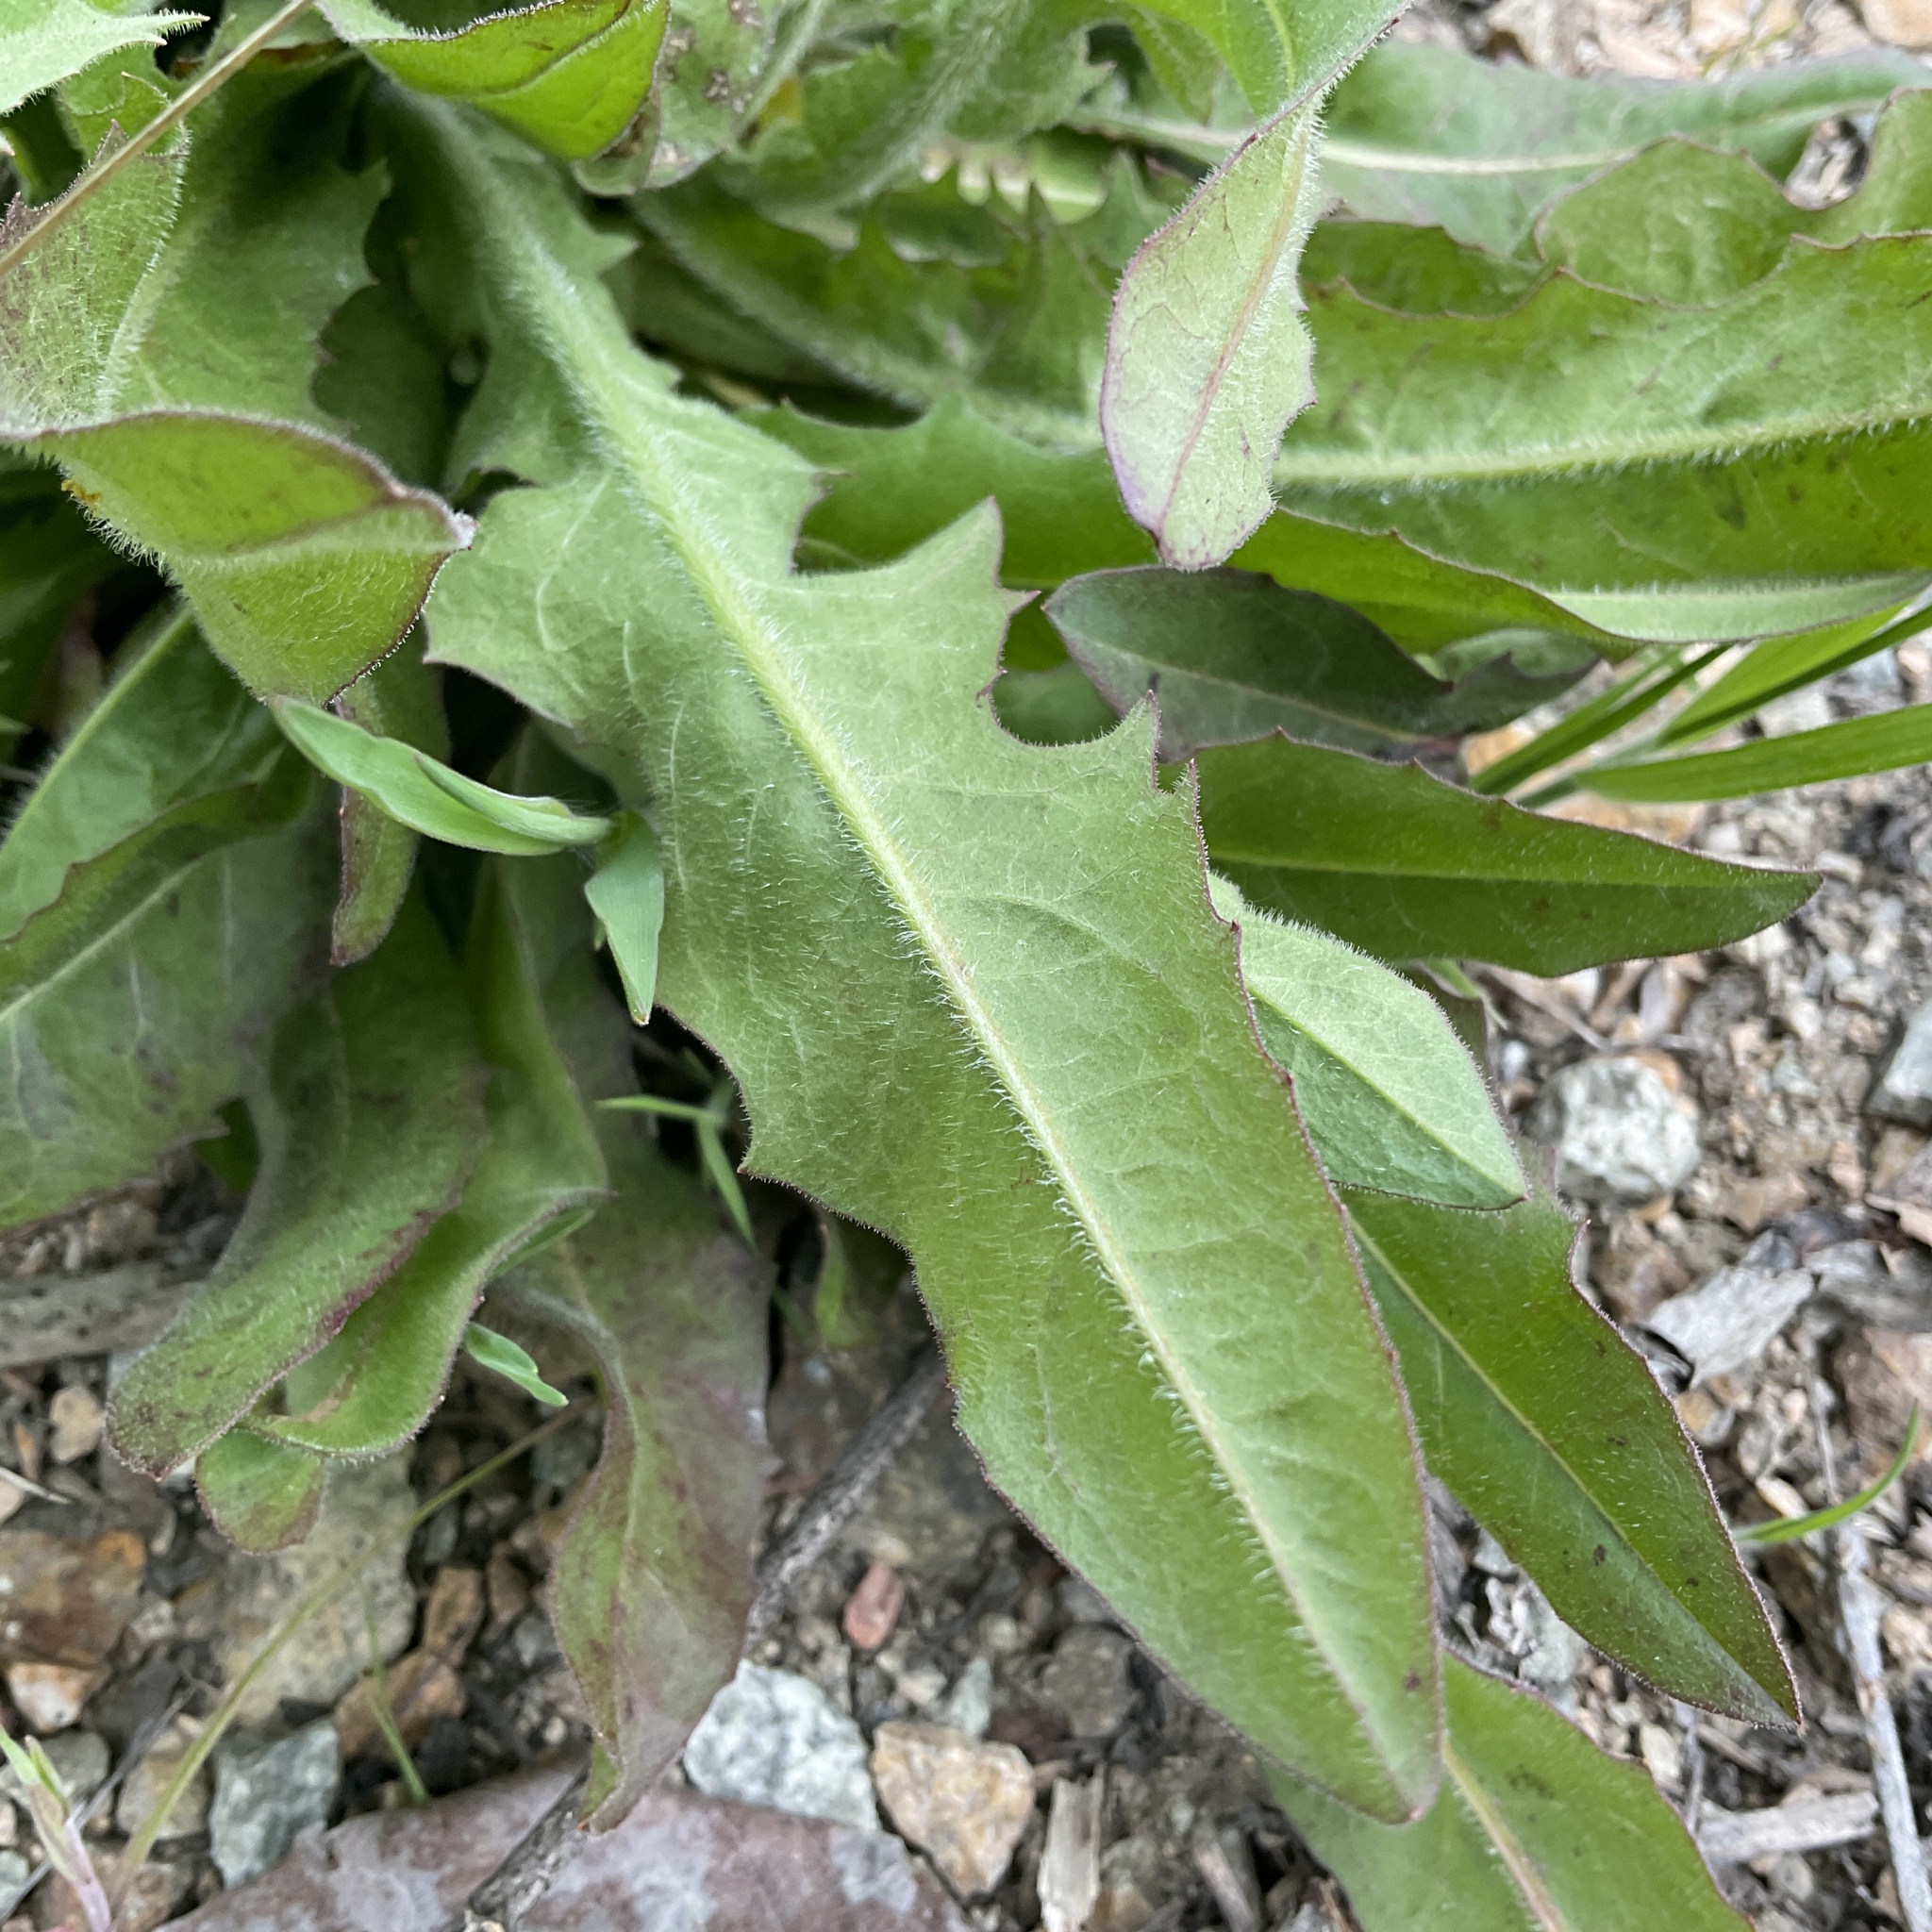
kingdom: Plantae
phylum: Tracheophyta
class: Magnoliopsida
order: Asterales
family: Asteraceae
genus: Cichorium
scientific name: Cichorium intybus
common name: Chicory
